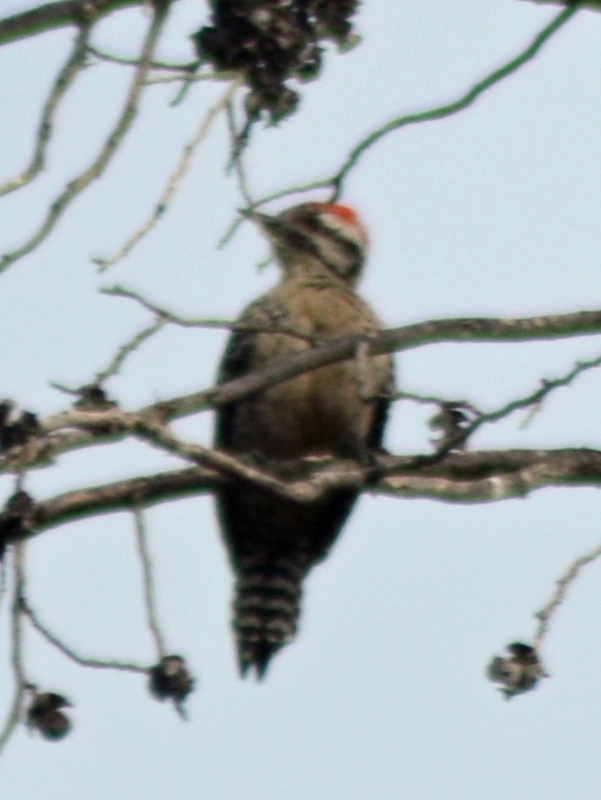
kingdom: Animalia
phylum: Chordata
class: Aves
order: Piciformes
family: Picidae
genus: Dryobates
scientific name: Dryobates scalaris
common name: Ladder-backed woodpecker
